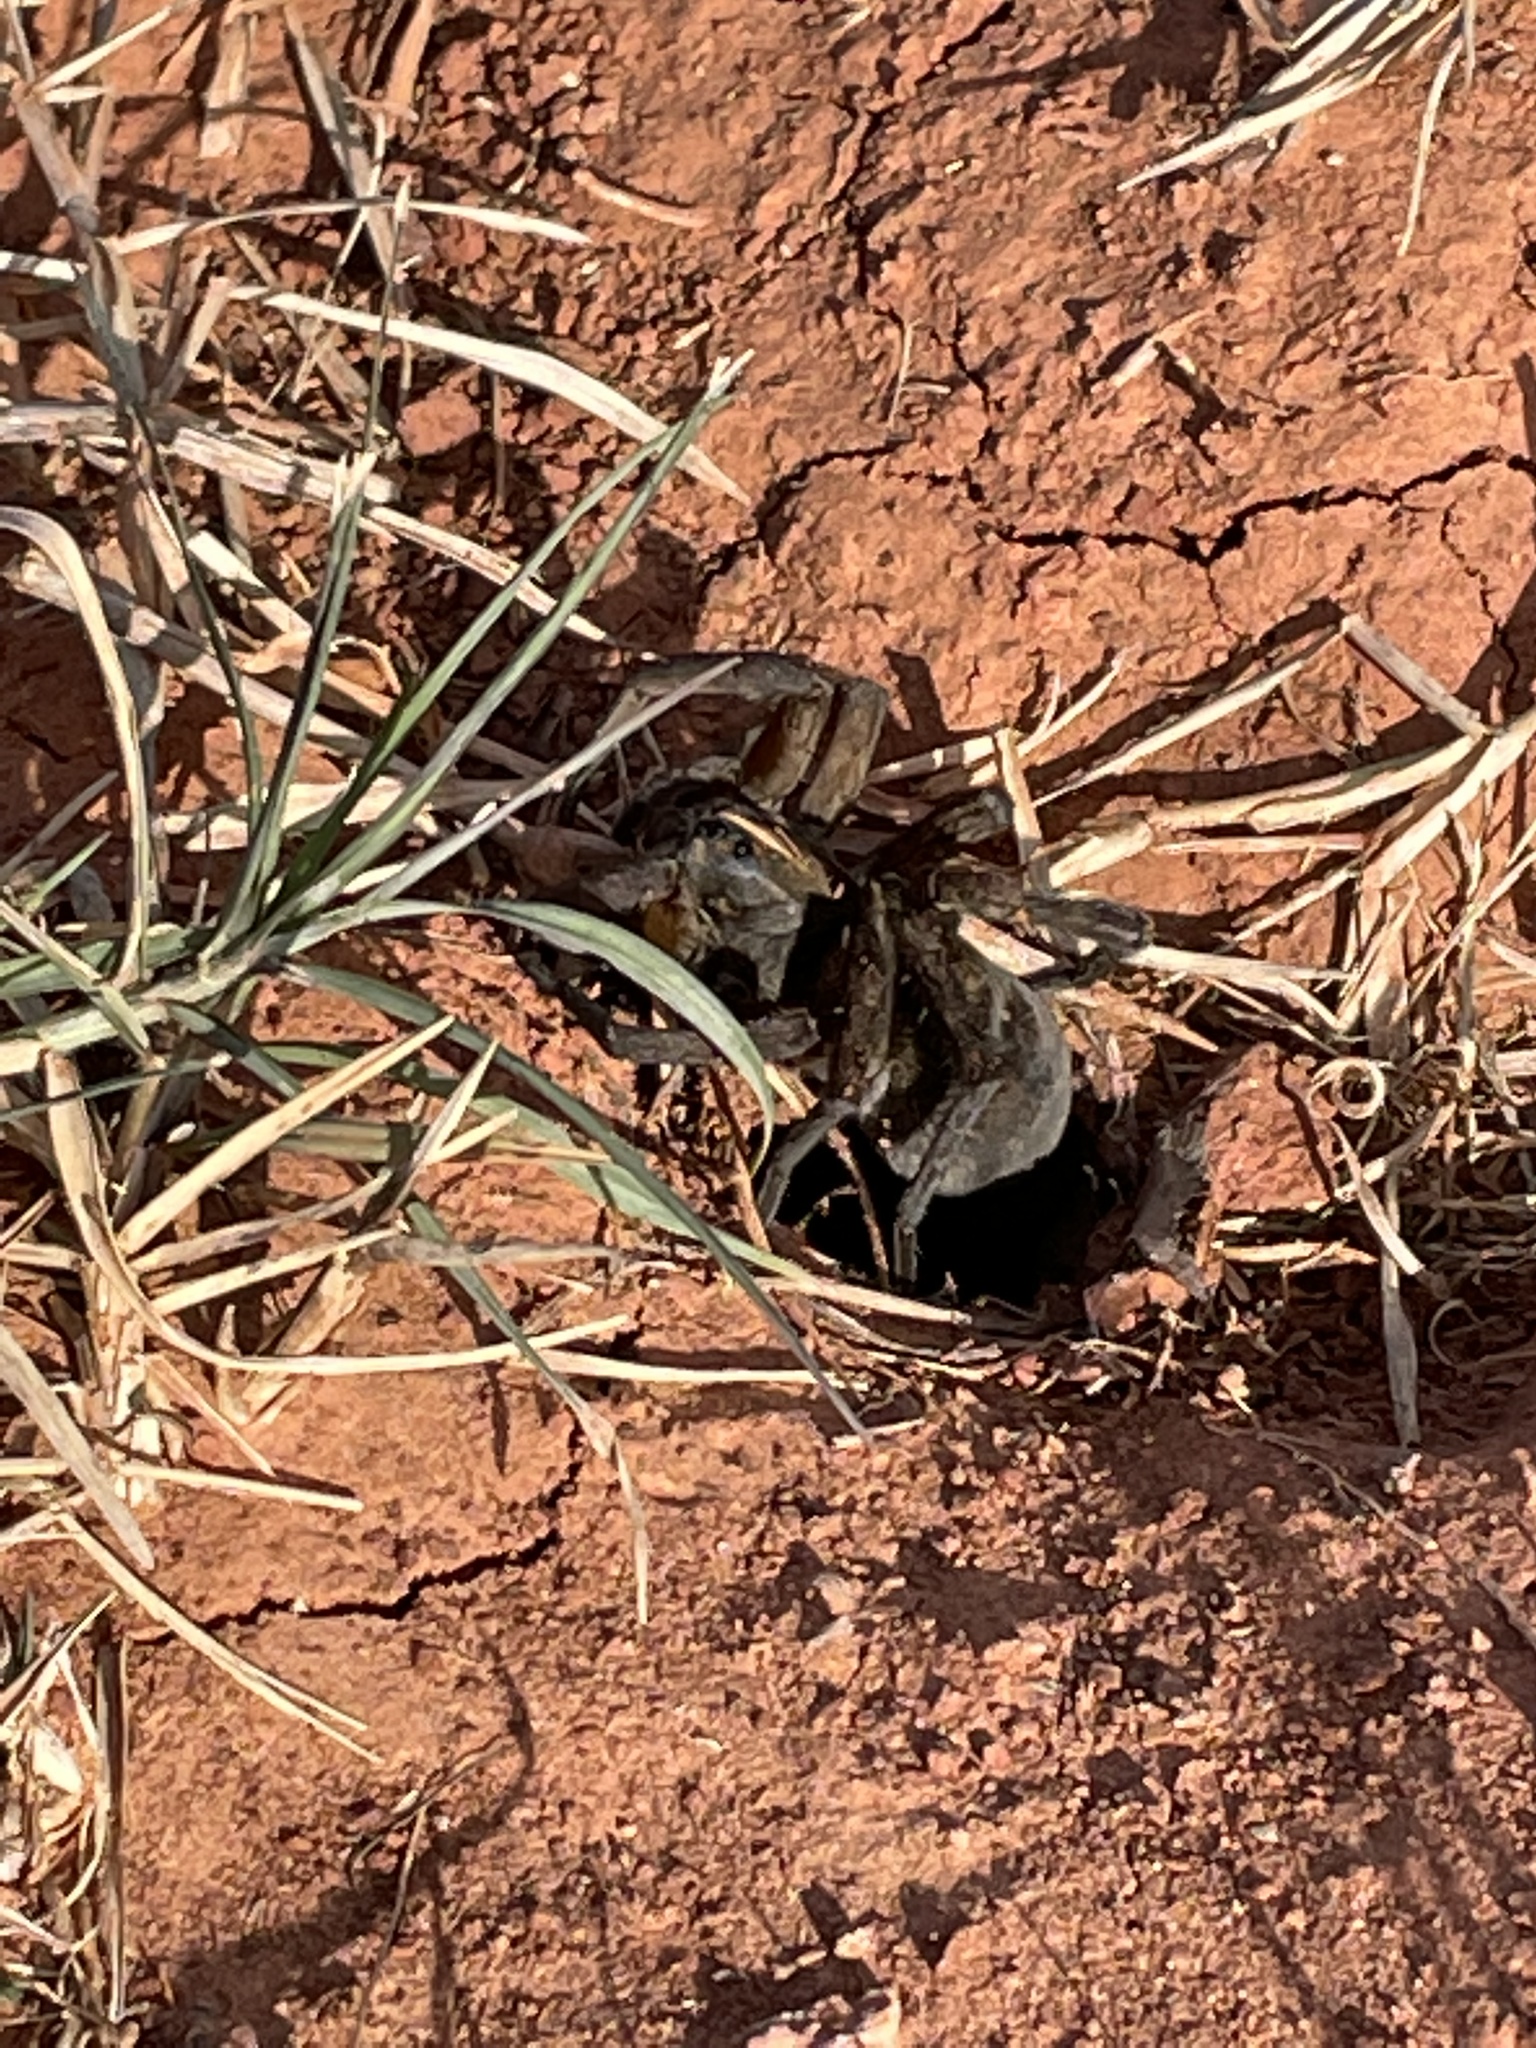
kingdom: Animalia
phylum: Arthropoda
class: Arachnida
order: Araneae
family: Lycosidae
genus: Tigrosa
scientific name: Tigrosa grandis
